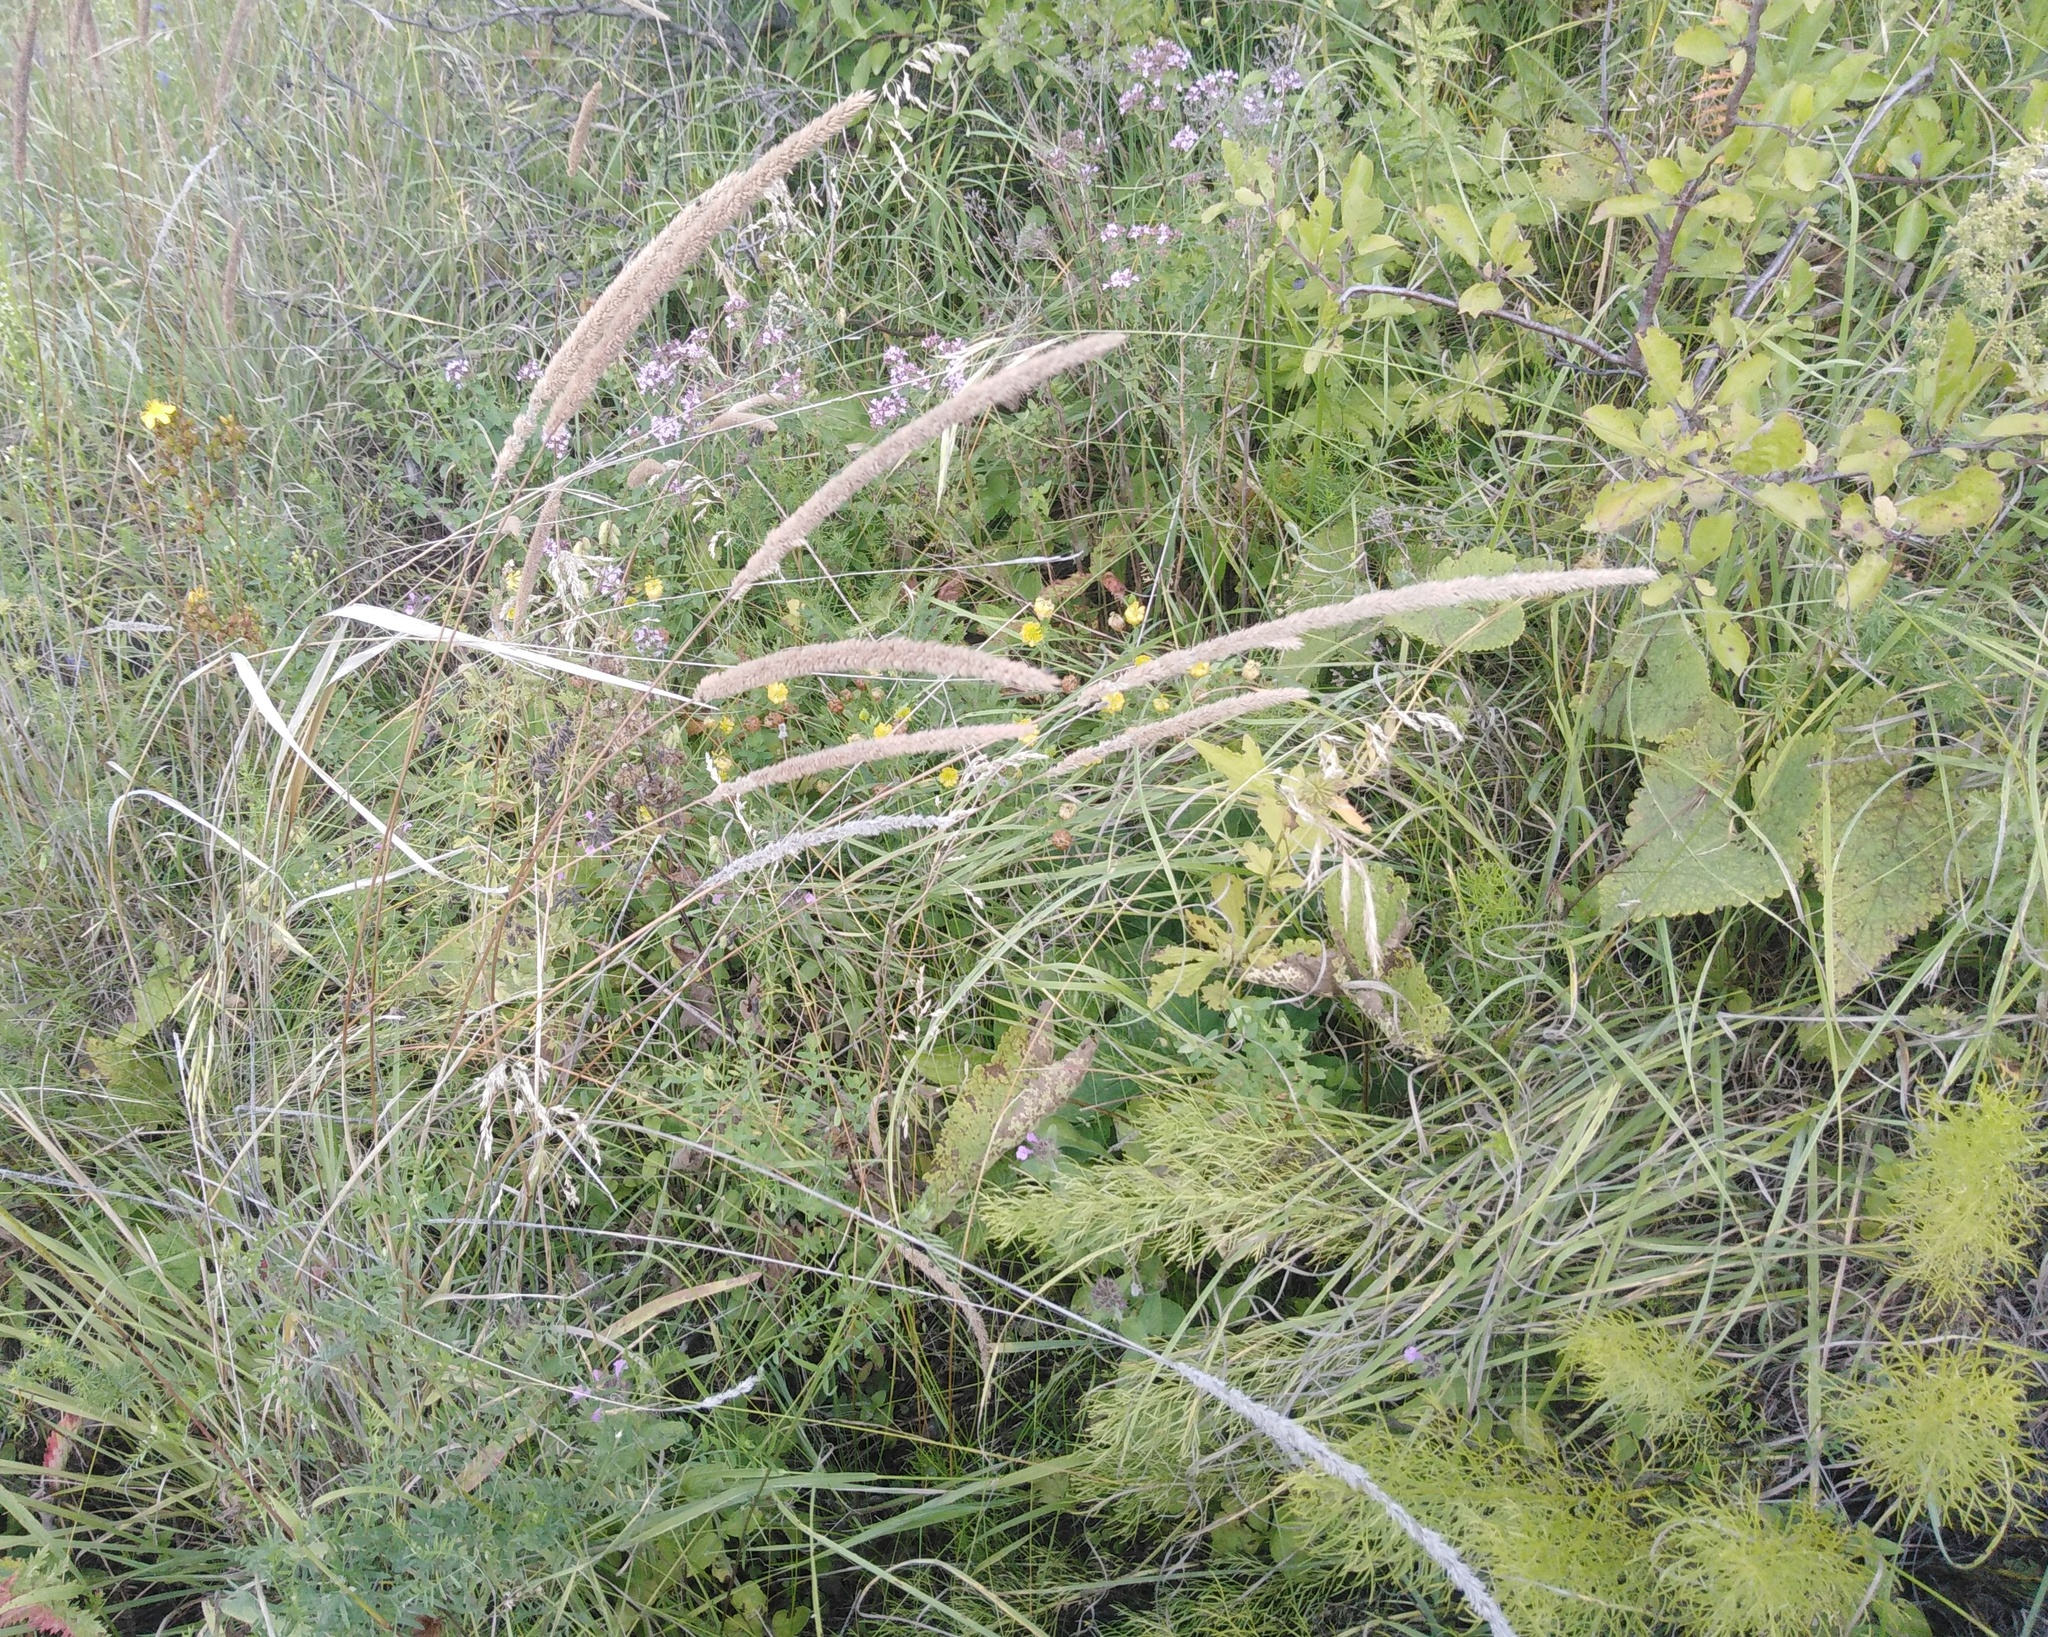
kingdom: Plantae
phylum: Tracheophyta
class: Liliopsida
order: Poales
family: Poaceae
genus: Phleum
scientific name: Phleum phleoides
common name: Purple-stem cat's-tail
